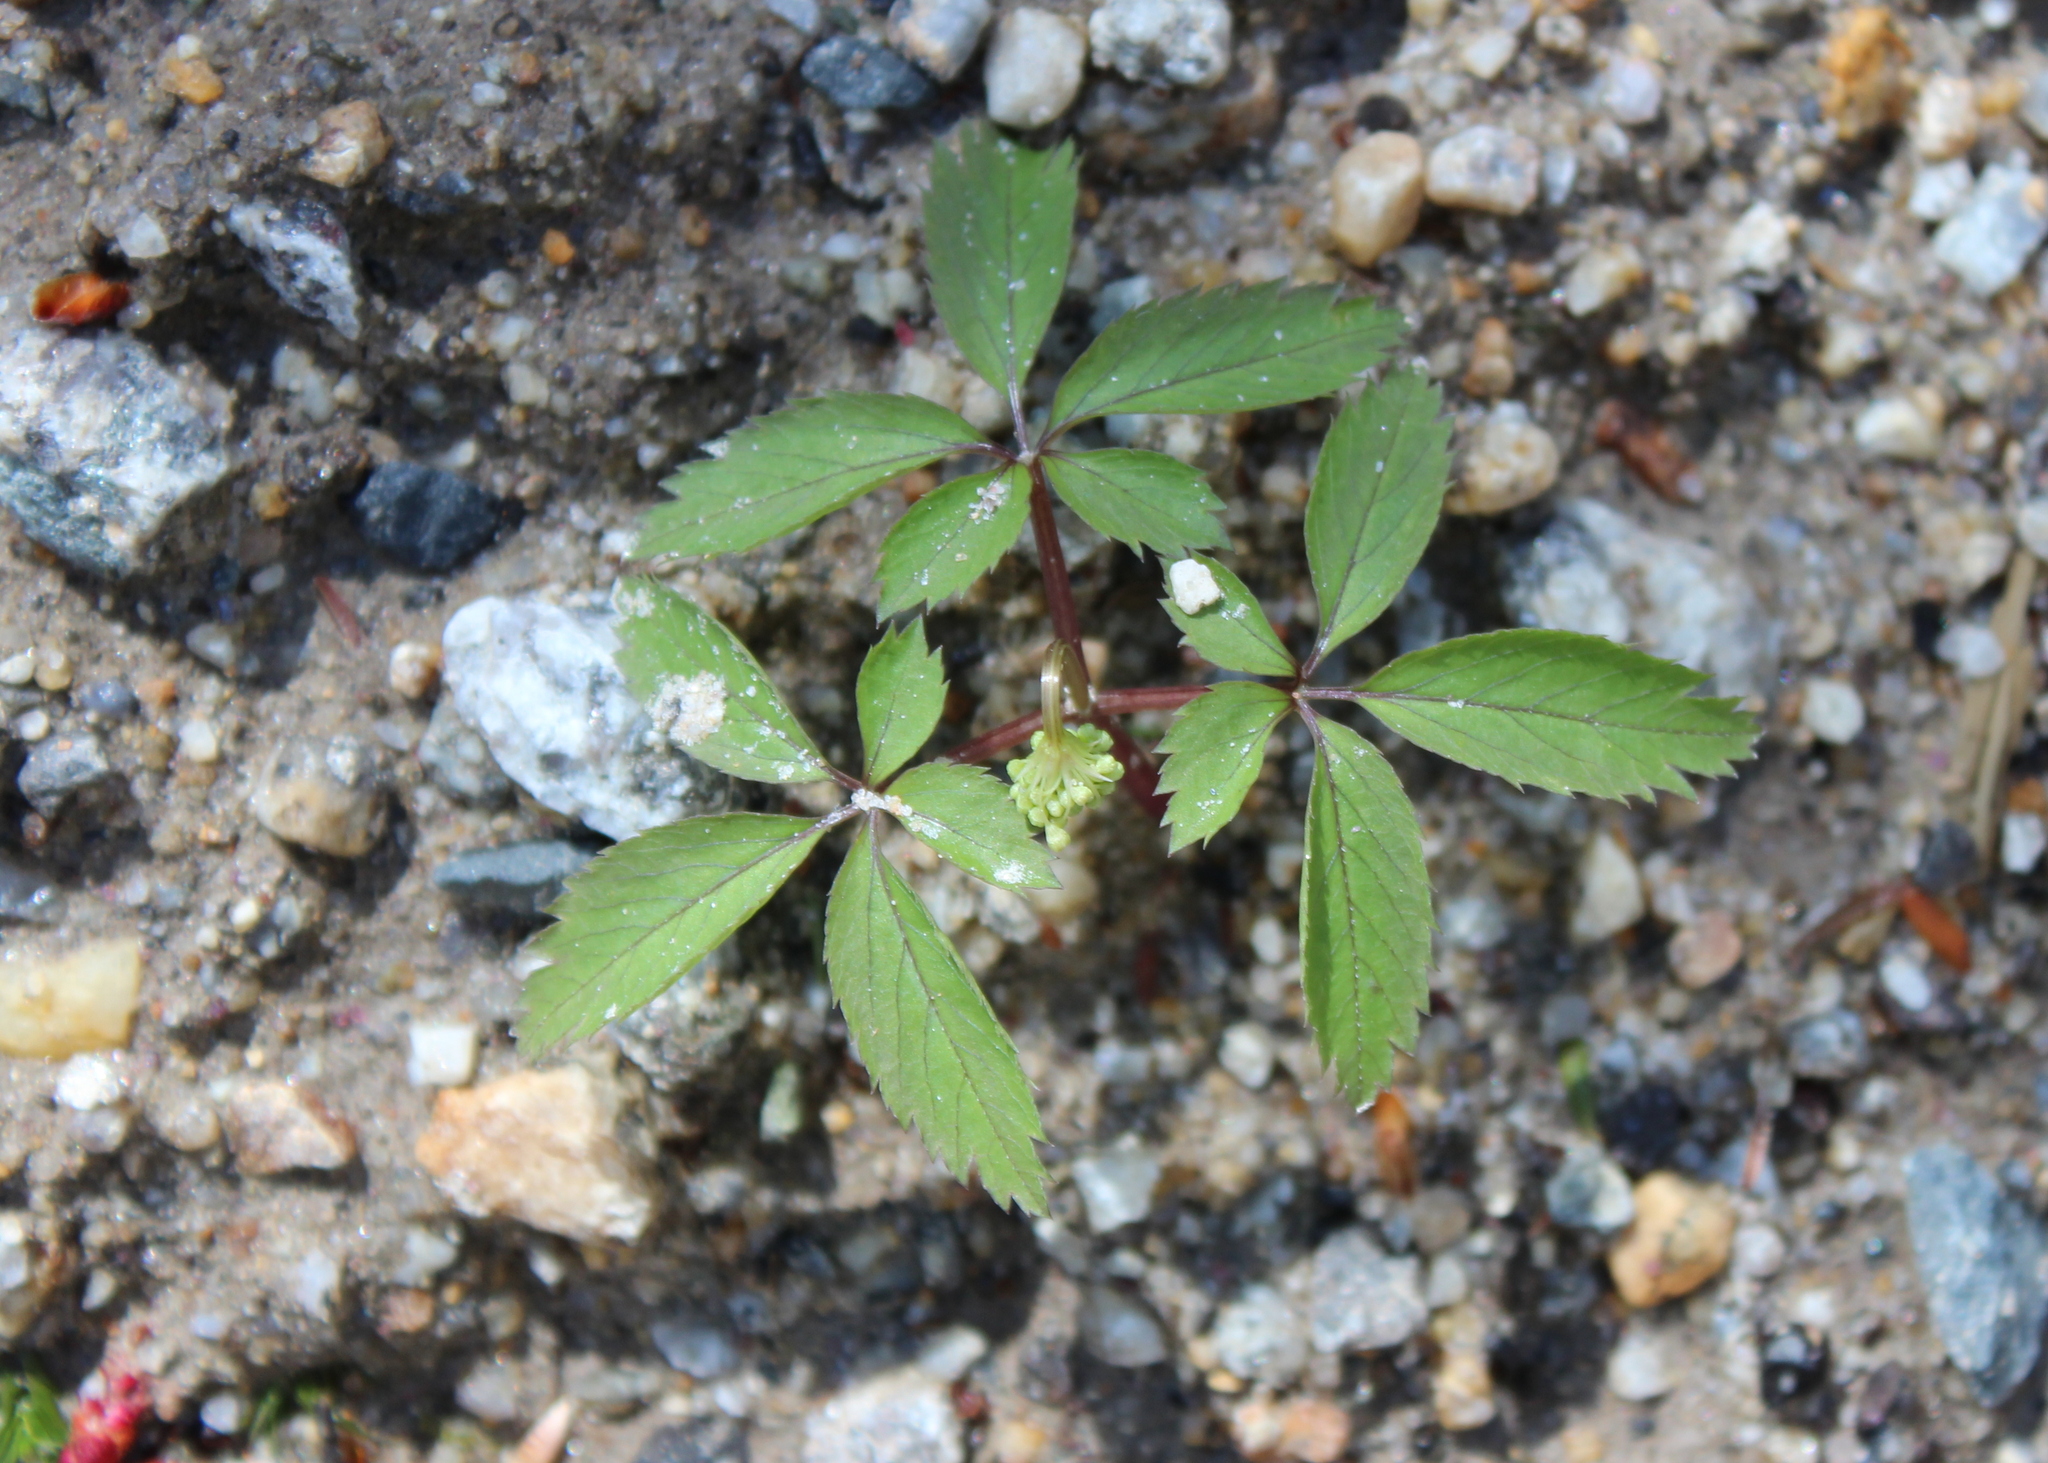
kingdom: Plantae
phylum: Tracheophyta
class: Magnoliopsida
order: Apiales
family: Araliaceae
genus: Panax
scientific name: Panax trifolius
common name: Dwarf ginseng
